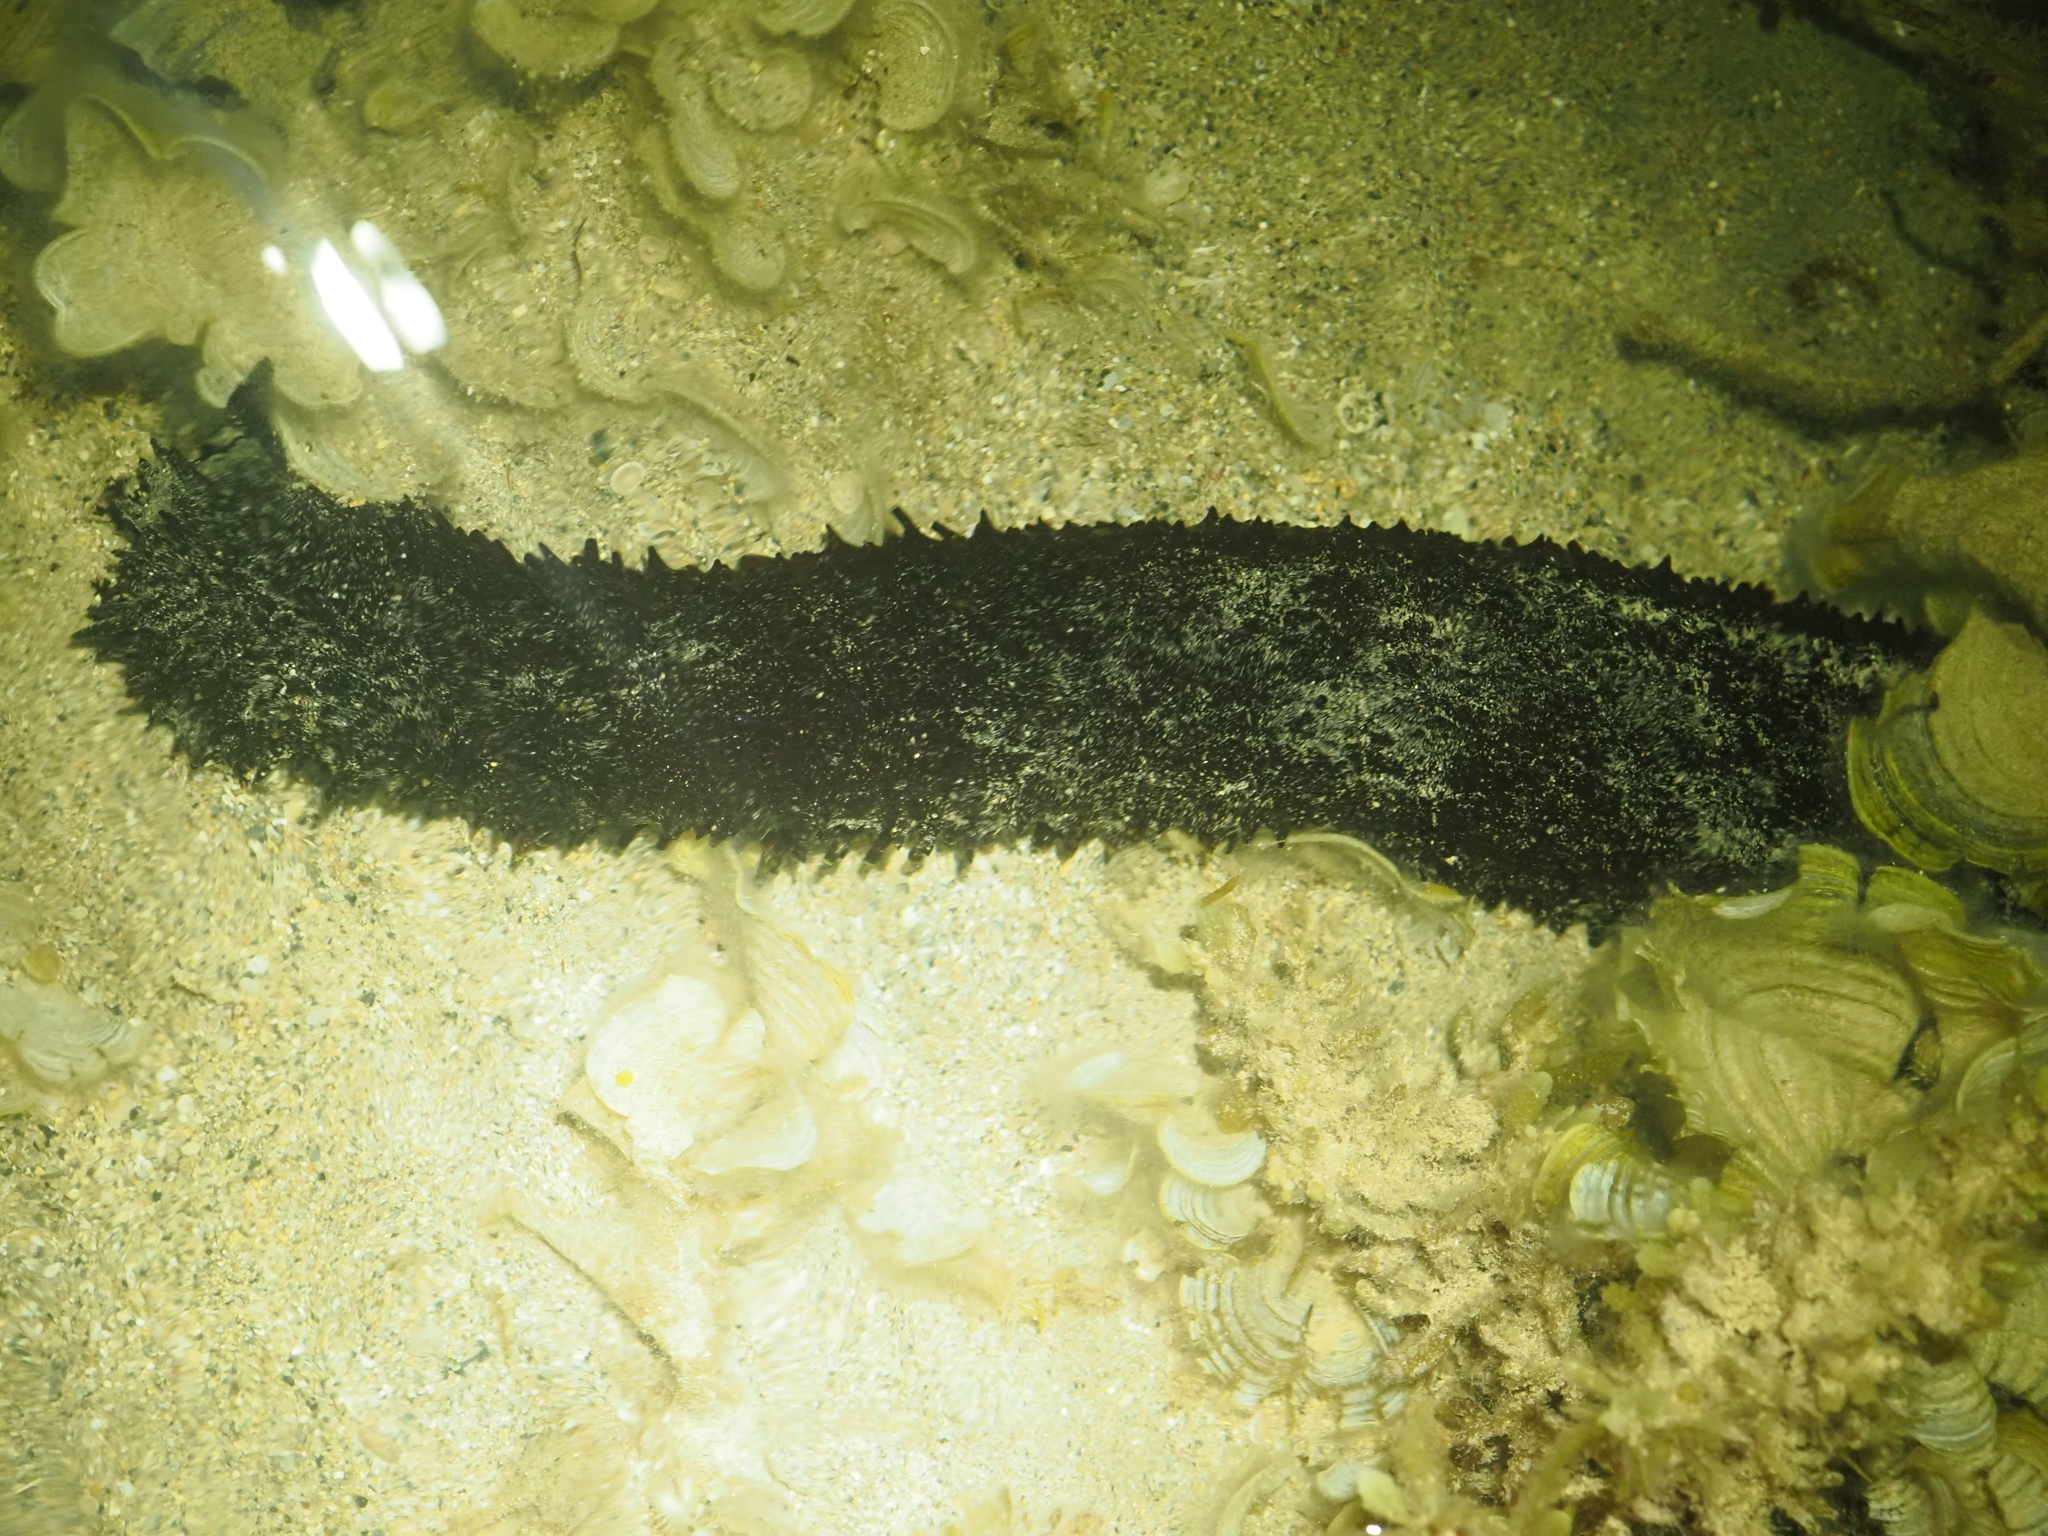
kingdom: Animalia
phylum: Echinodermata
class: Holothuroidea
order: Holothuriida
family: Holothuriidae
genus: Holothuria
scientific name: Holothuria leucospilota
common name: White thread fish
